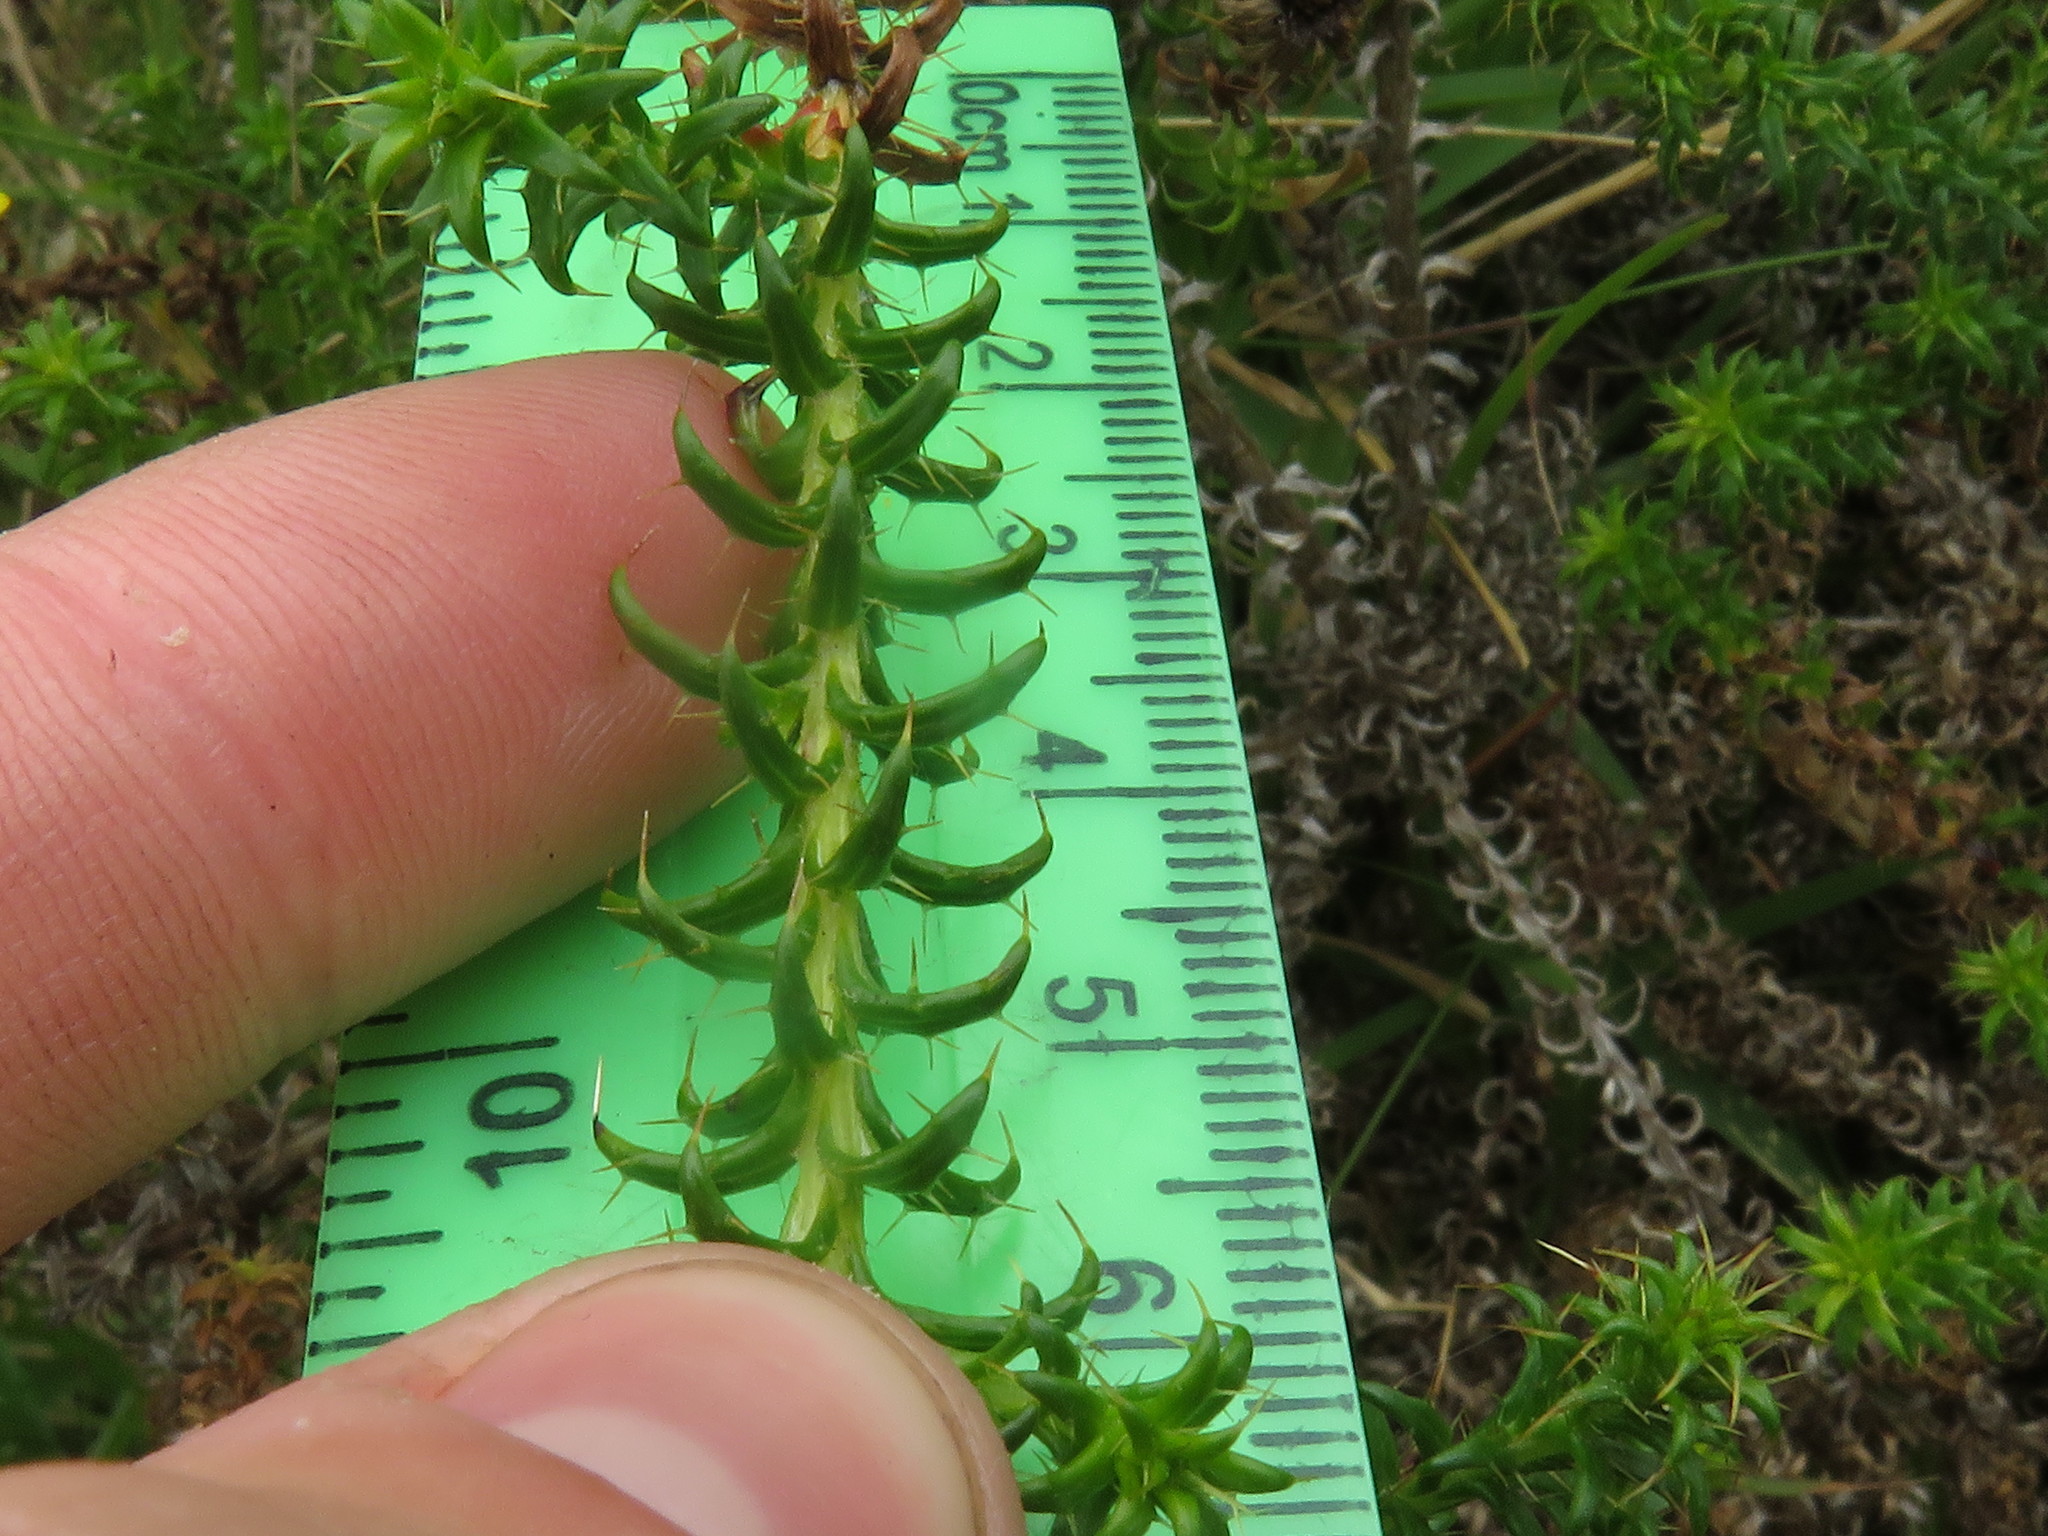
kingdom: Plantae
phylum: Tracheophyta
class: Magnoliopsida
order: Asterales
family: Asteraceae
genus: Cullumia
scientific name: Cullumia decurrens
